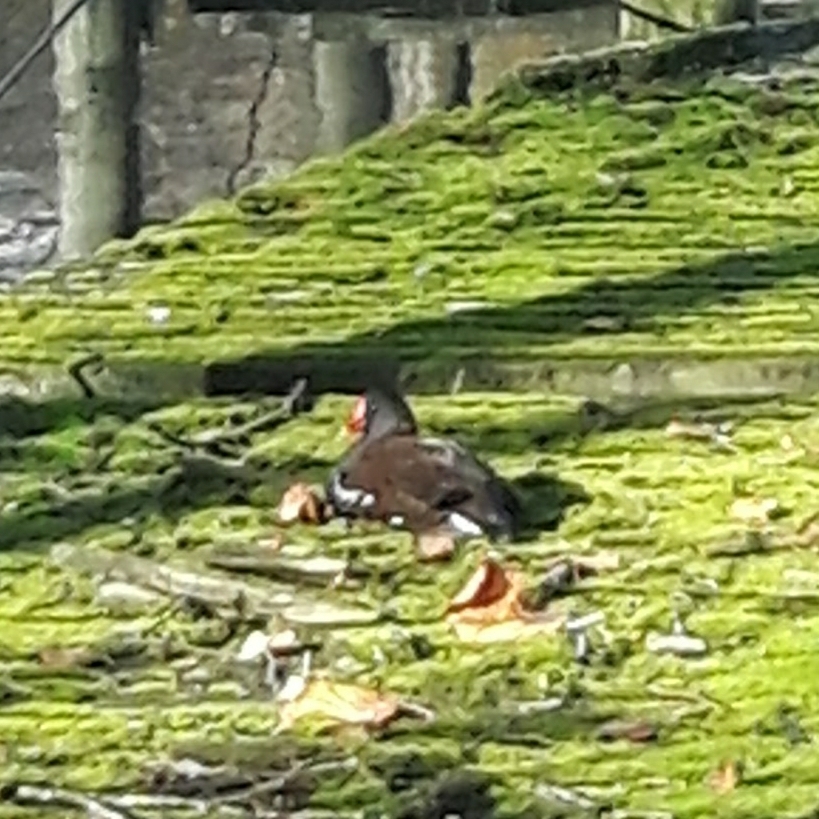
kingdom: Animalia
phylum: Chordata
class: Aves
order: Gruiformes
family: Rallidae
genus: Gallinula
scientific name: Gallinula chloropus
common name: Common moorhen
